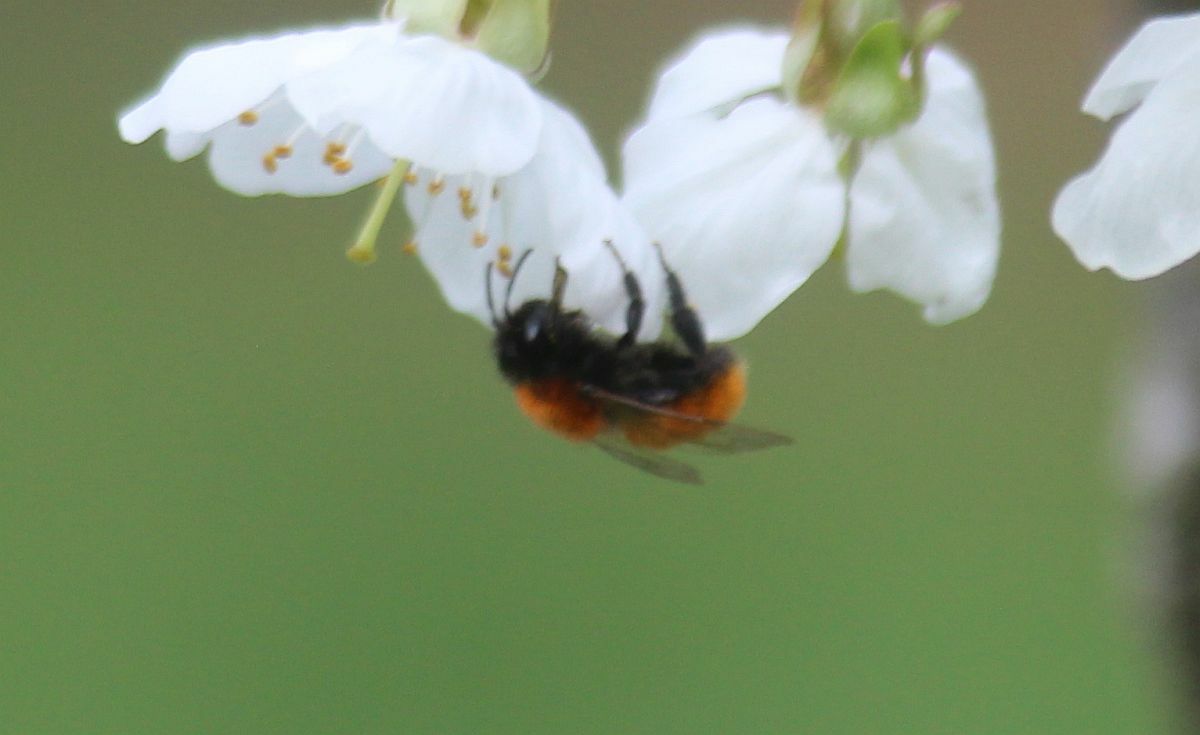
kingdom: Animalia
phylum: Arthropoda
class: Insecta
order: Hymenoptera
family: Andrenidae
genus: Andrena
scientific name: Andrena fulva
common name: Tawny mining bee
